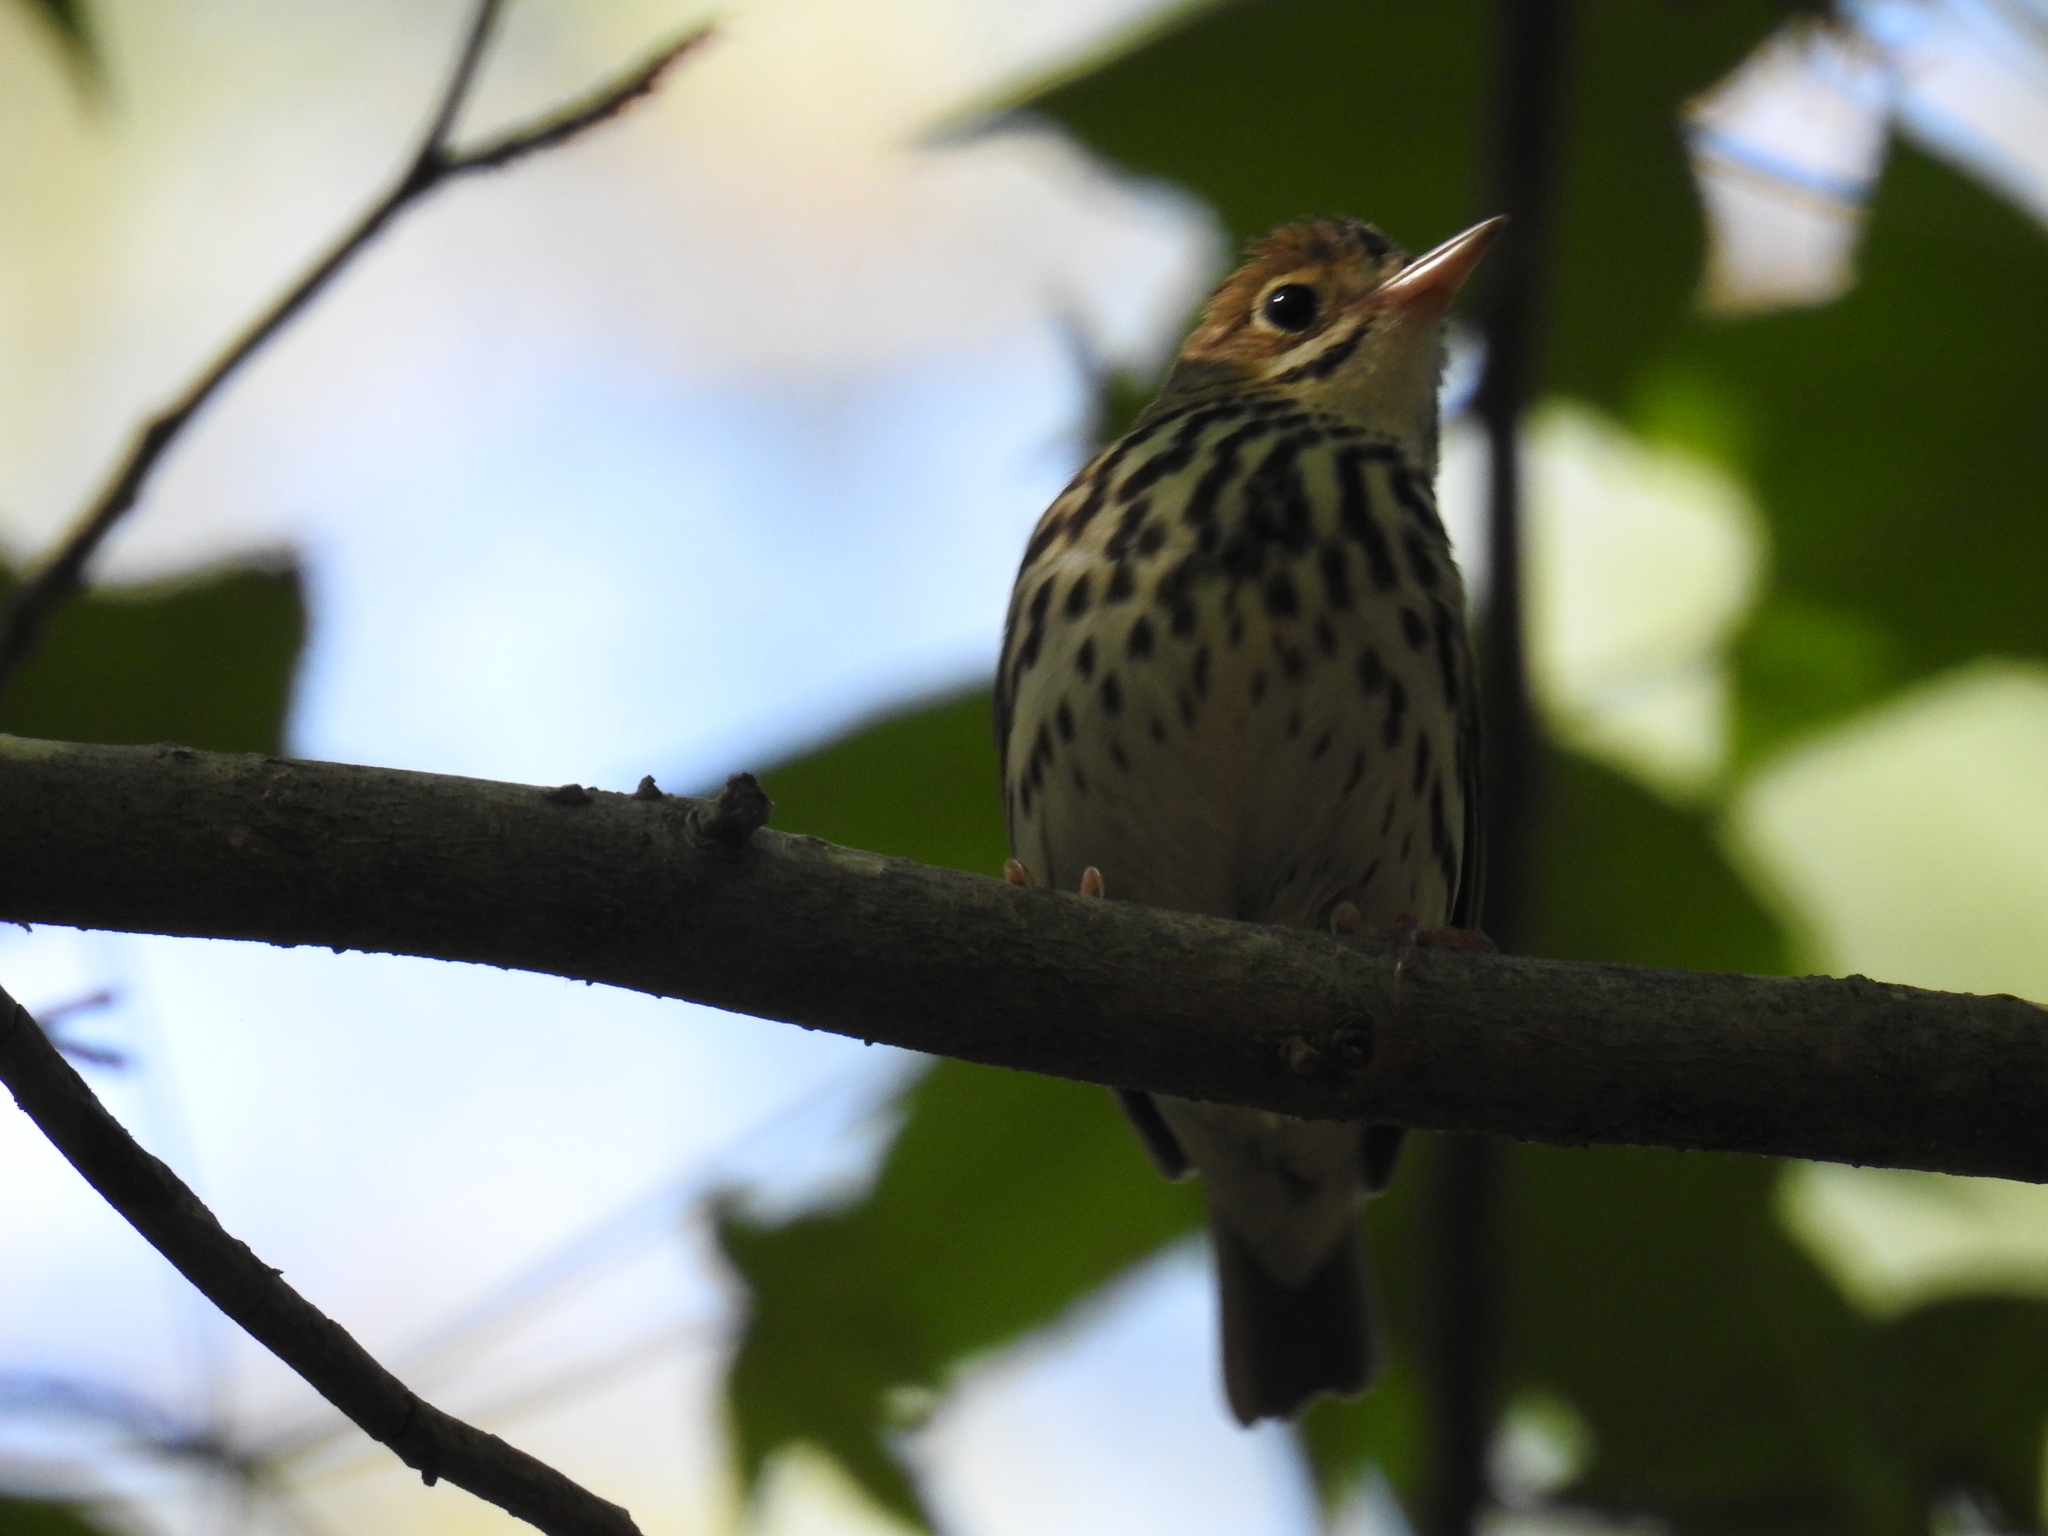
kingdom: Animalia
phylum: Chordata
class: Aves
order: Passeriformes
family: Parulidae
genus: Seiurus
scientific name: Seiurus aurocapilla
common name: Ovenbird
